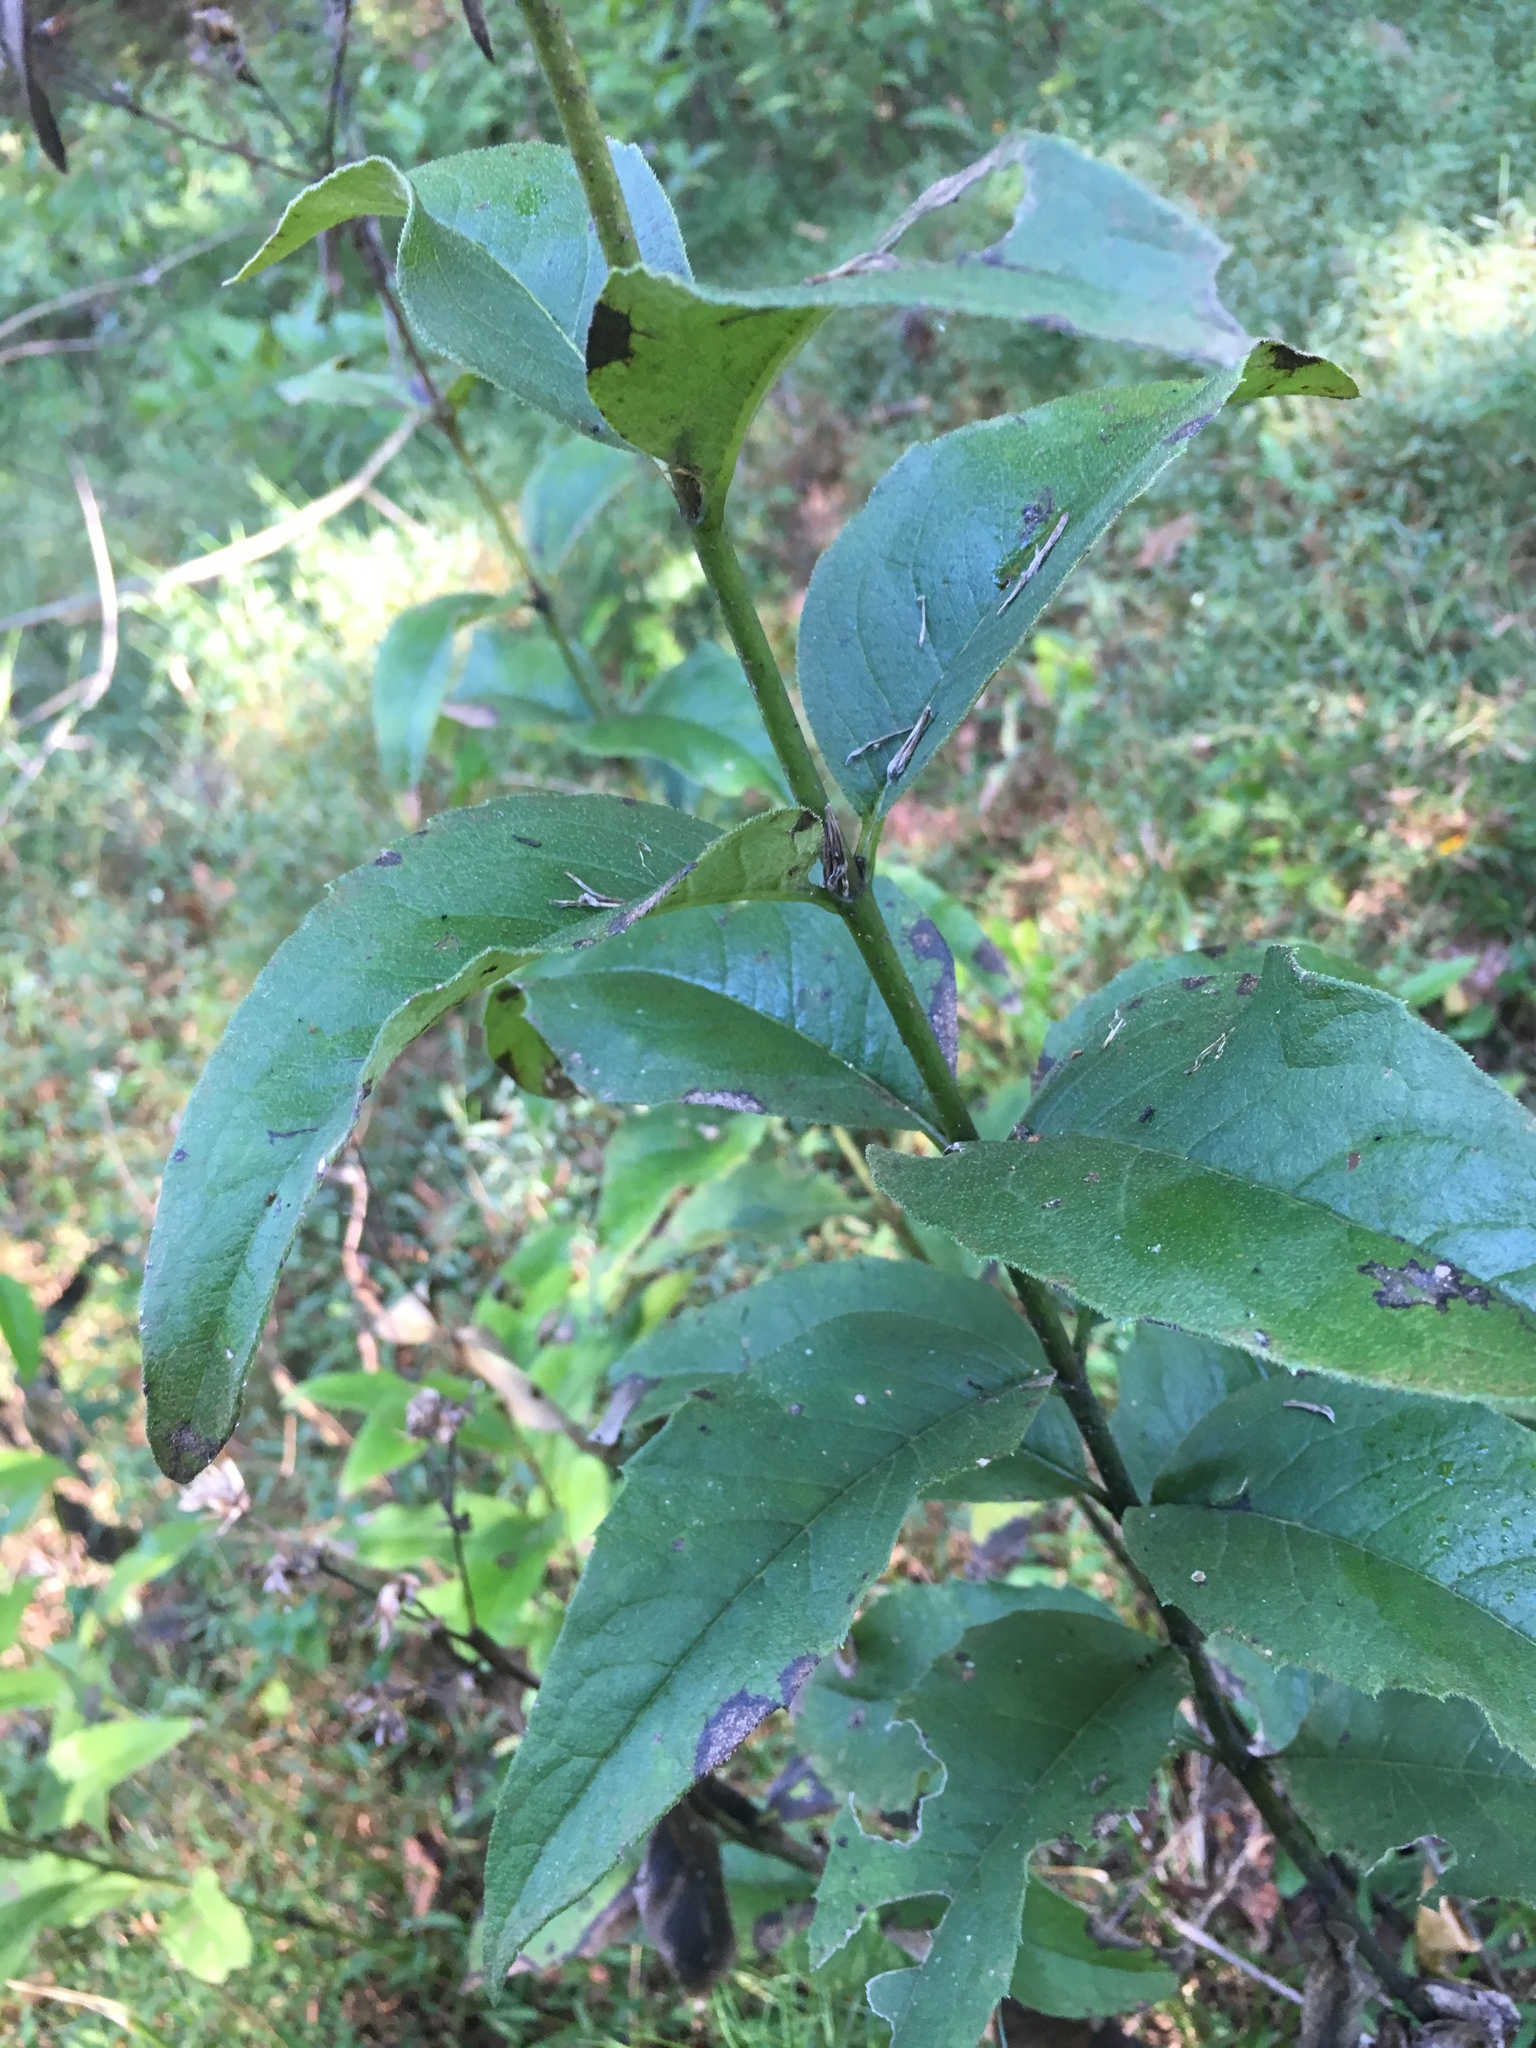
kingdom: Plantae
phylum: Tracheophyta
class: Magnoliopsida
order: Asterales
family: Asteraceae
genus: Silphium
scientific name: Silphium asteriscus
